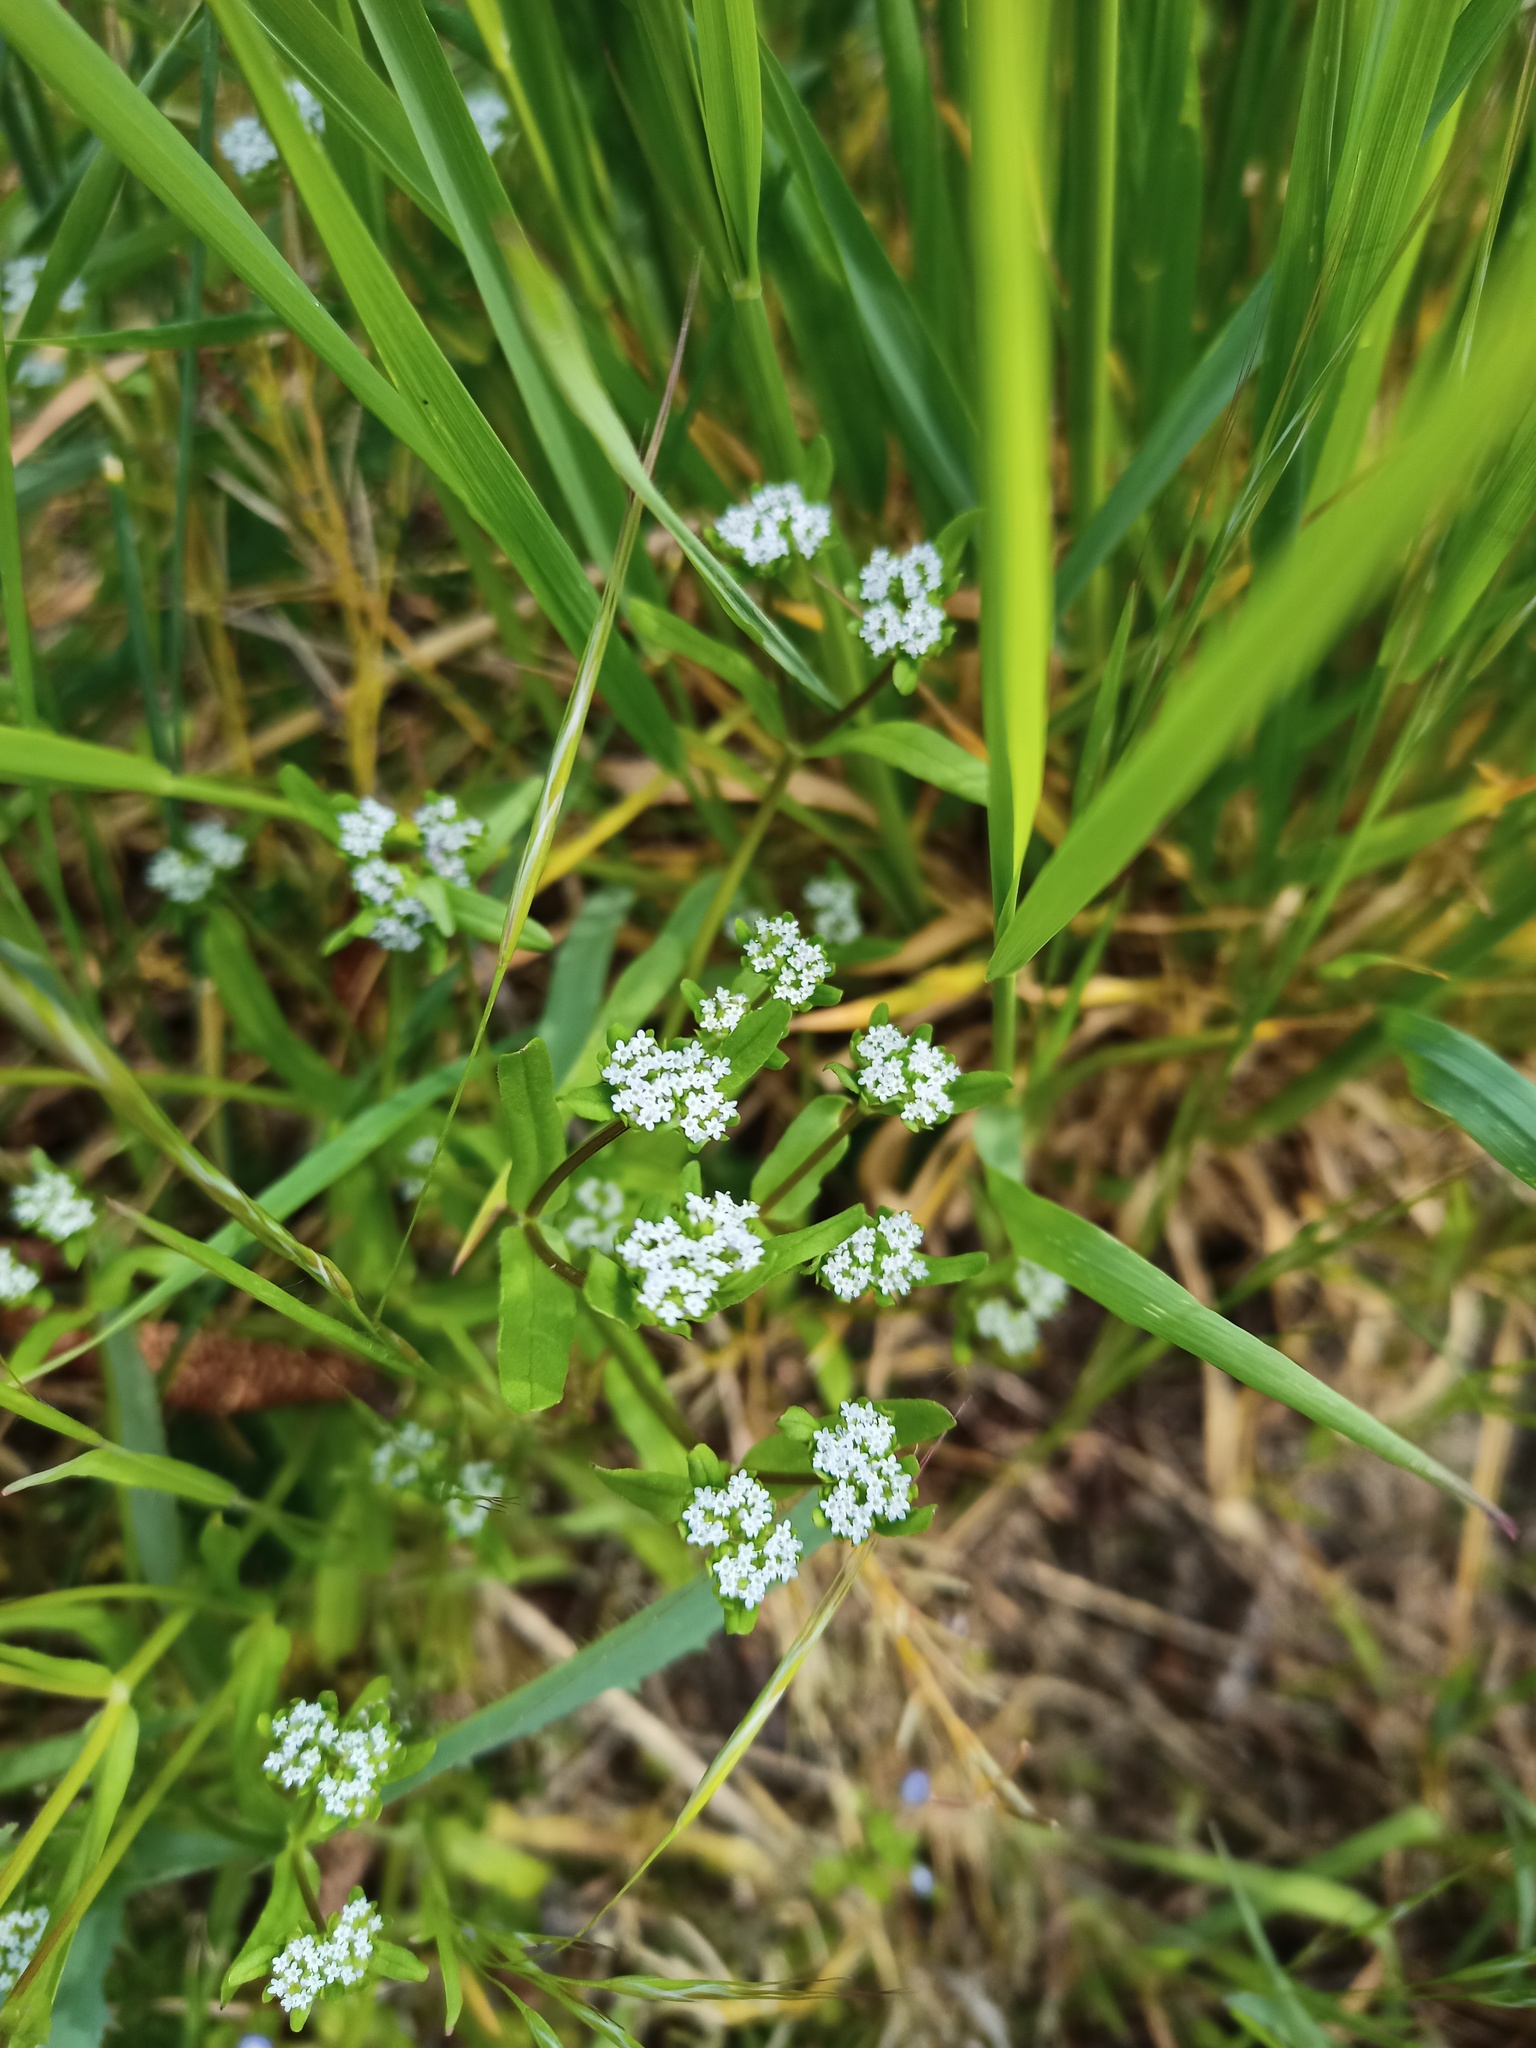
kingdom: Plantae
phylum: Tracheophyta
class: Magnoliopsida
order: Dipsacales
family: Caprifoliaceae
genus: Valerianella
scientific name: Valerianella locusta
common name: Common cornsalad
